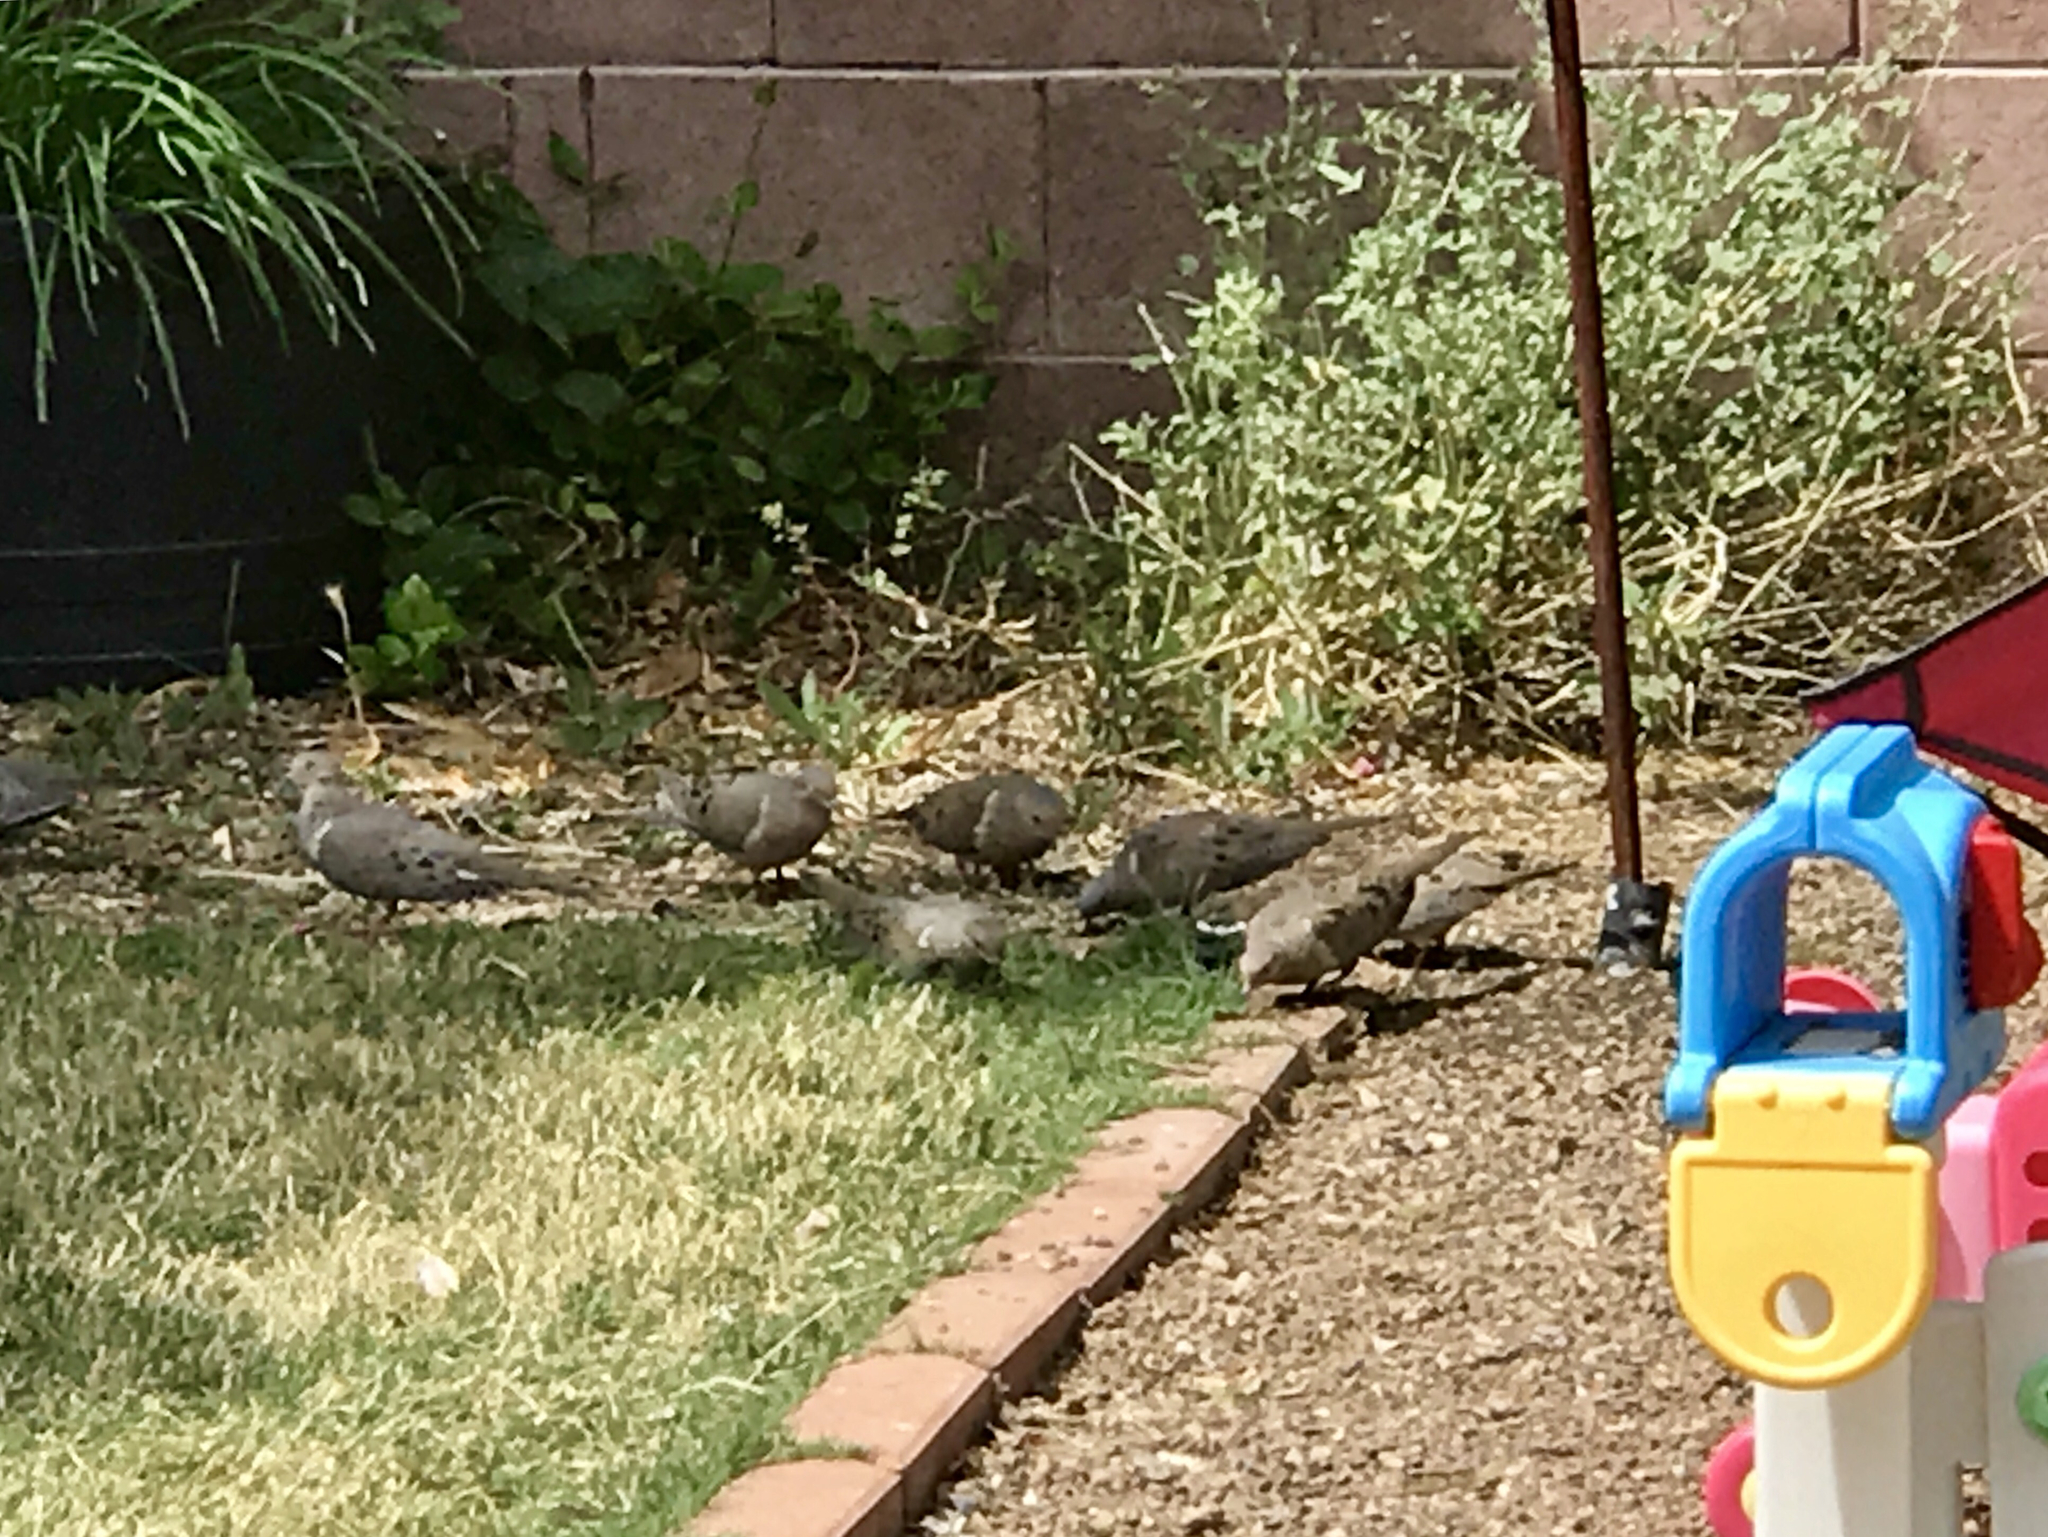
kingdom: Animalia
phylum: Chordata
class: Aves
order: Columbiformes
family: Columbidae
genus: Zenaida
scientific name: Zenaida macroura
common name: Mourning dove
